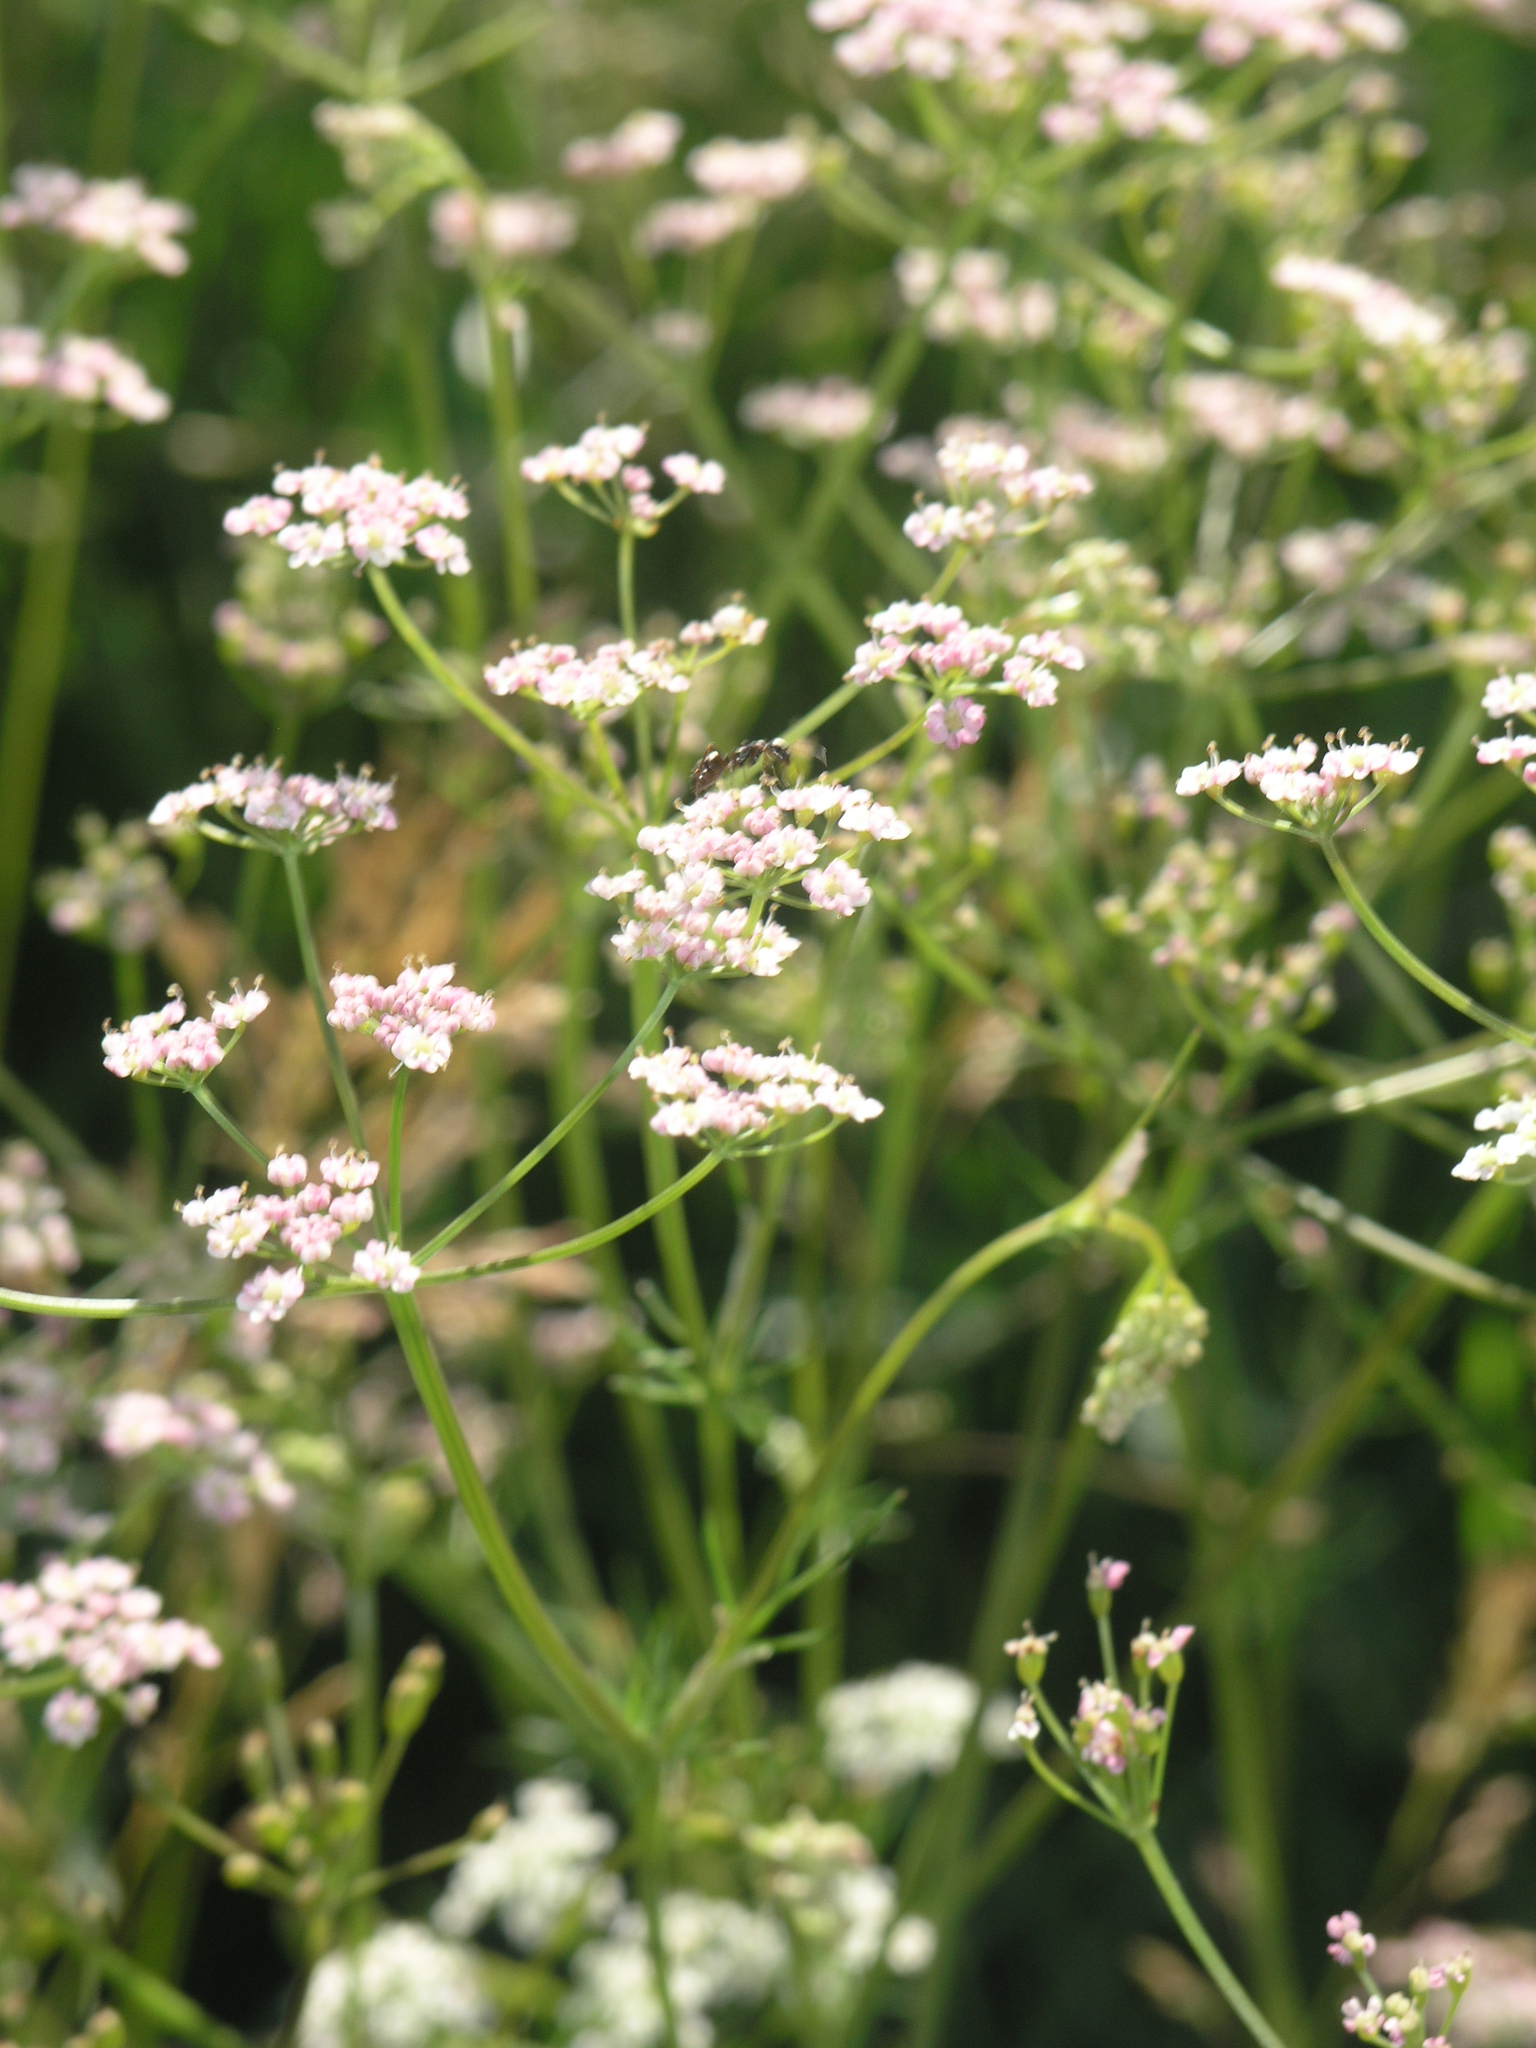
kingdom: Plantae
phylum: Tracheophyta
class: Magnoliopsida
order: Apiales
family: Apiaceae
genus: Carum
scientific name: Carum carvi
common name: Caraway
